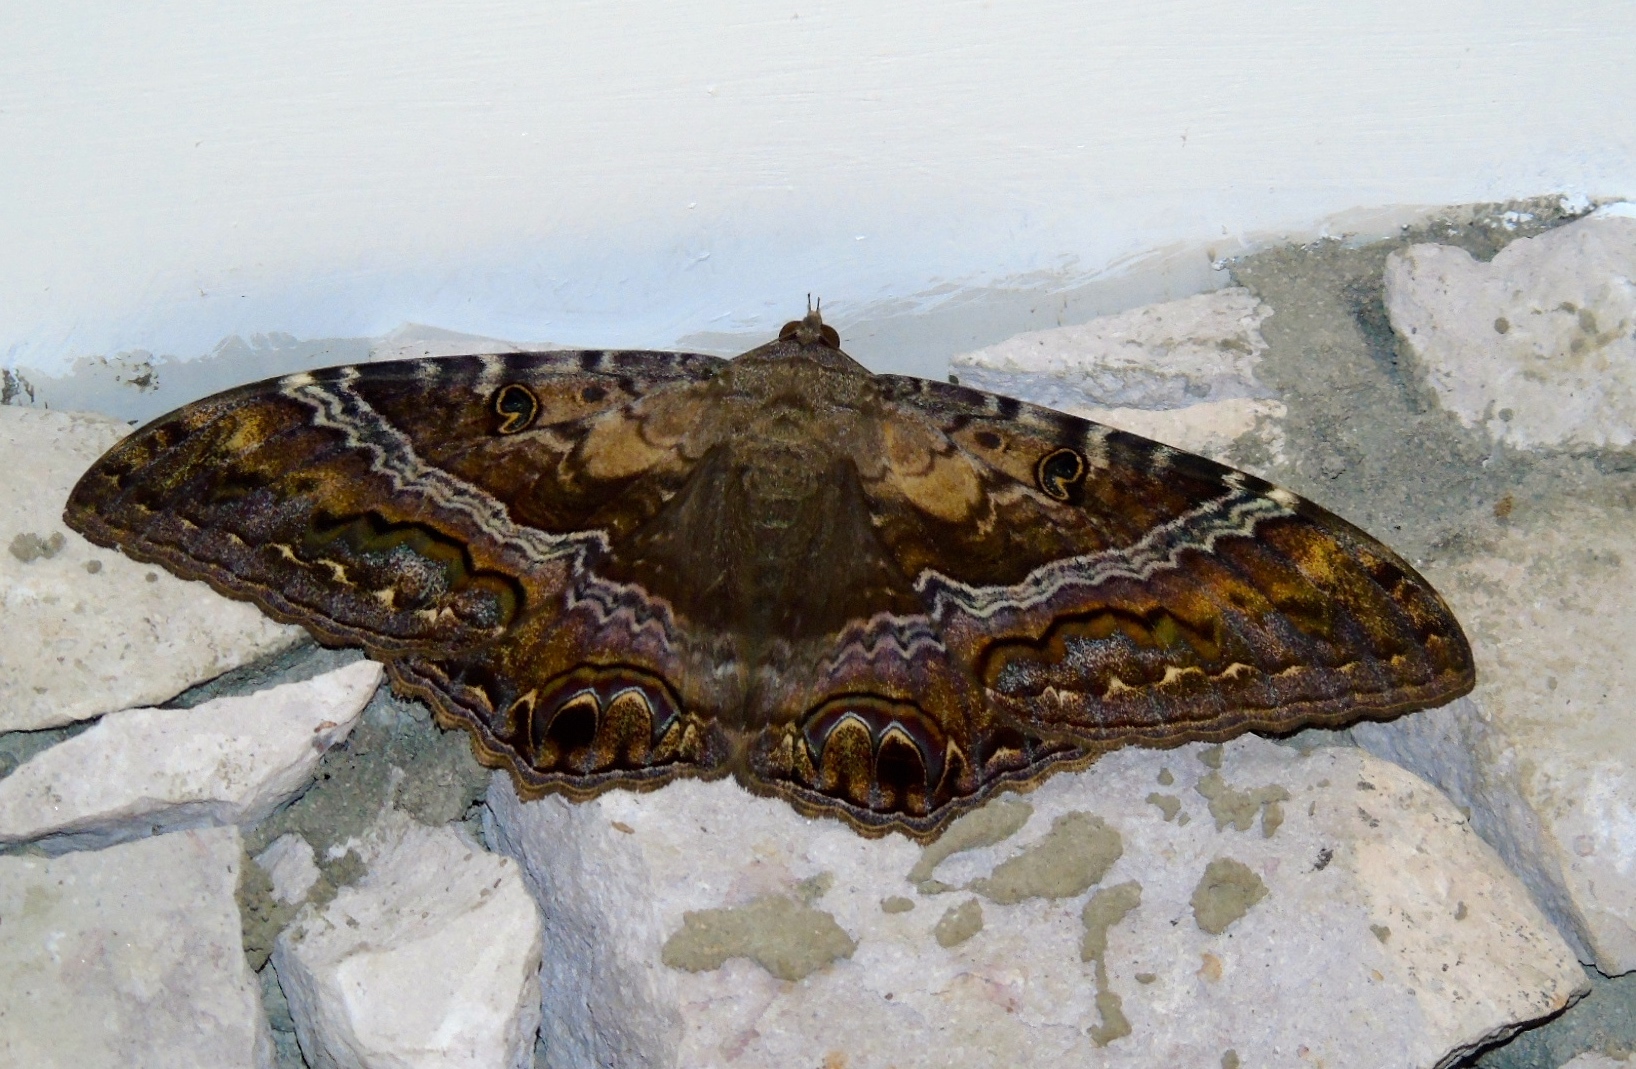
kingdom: Animalia
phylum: Arthropoda
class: Insecta
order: Lepidoptera
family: Erebidae
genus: Ascalapha
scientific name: Ascalapha odorata
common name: Black witch
